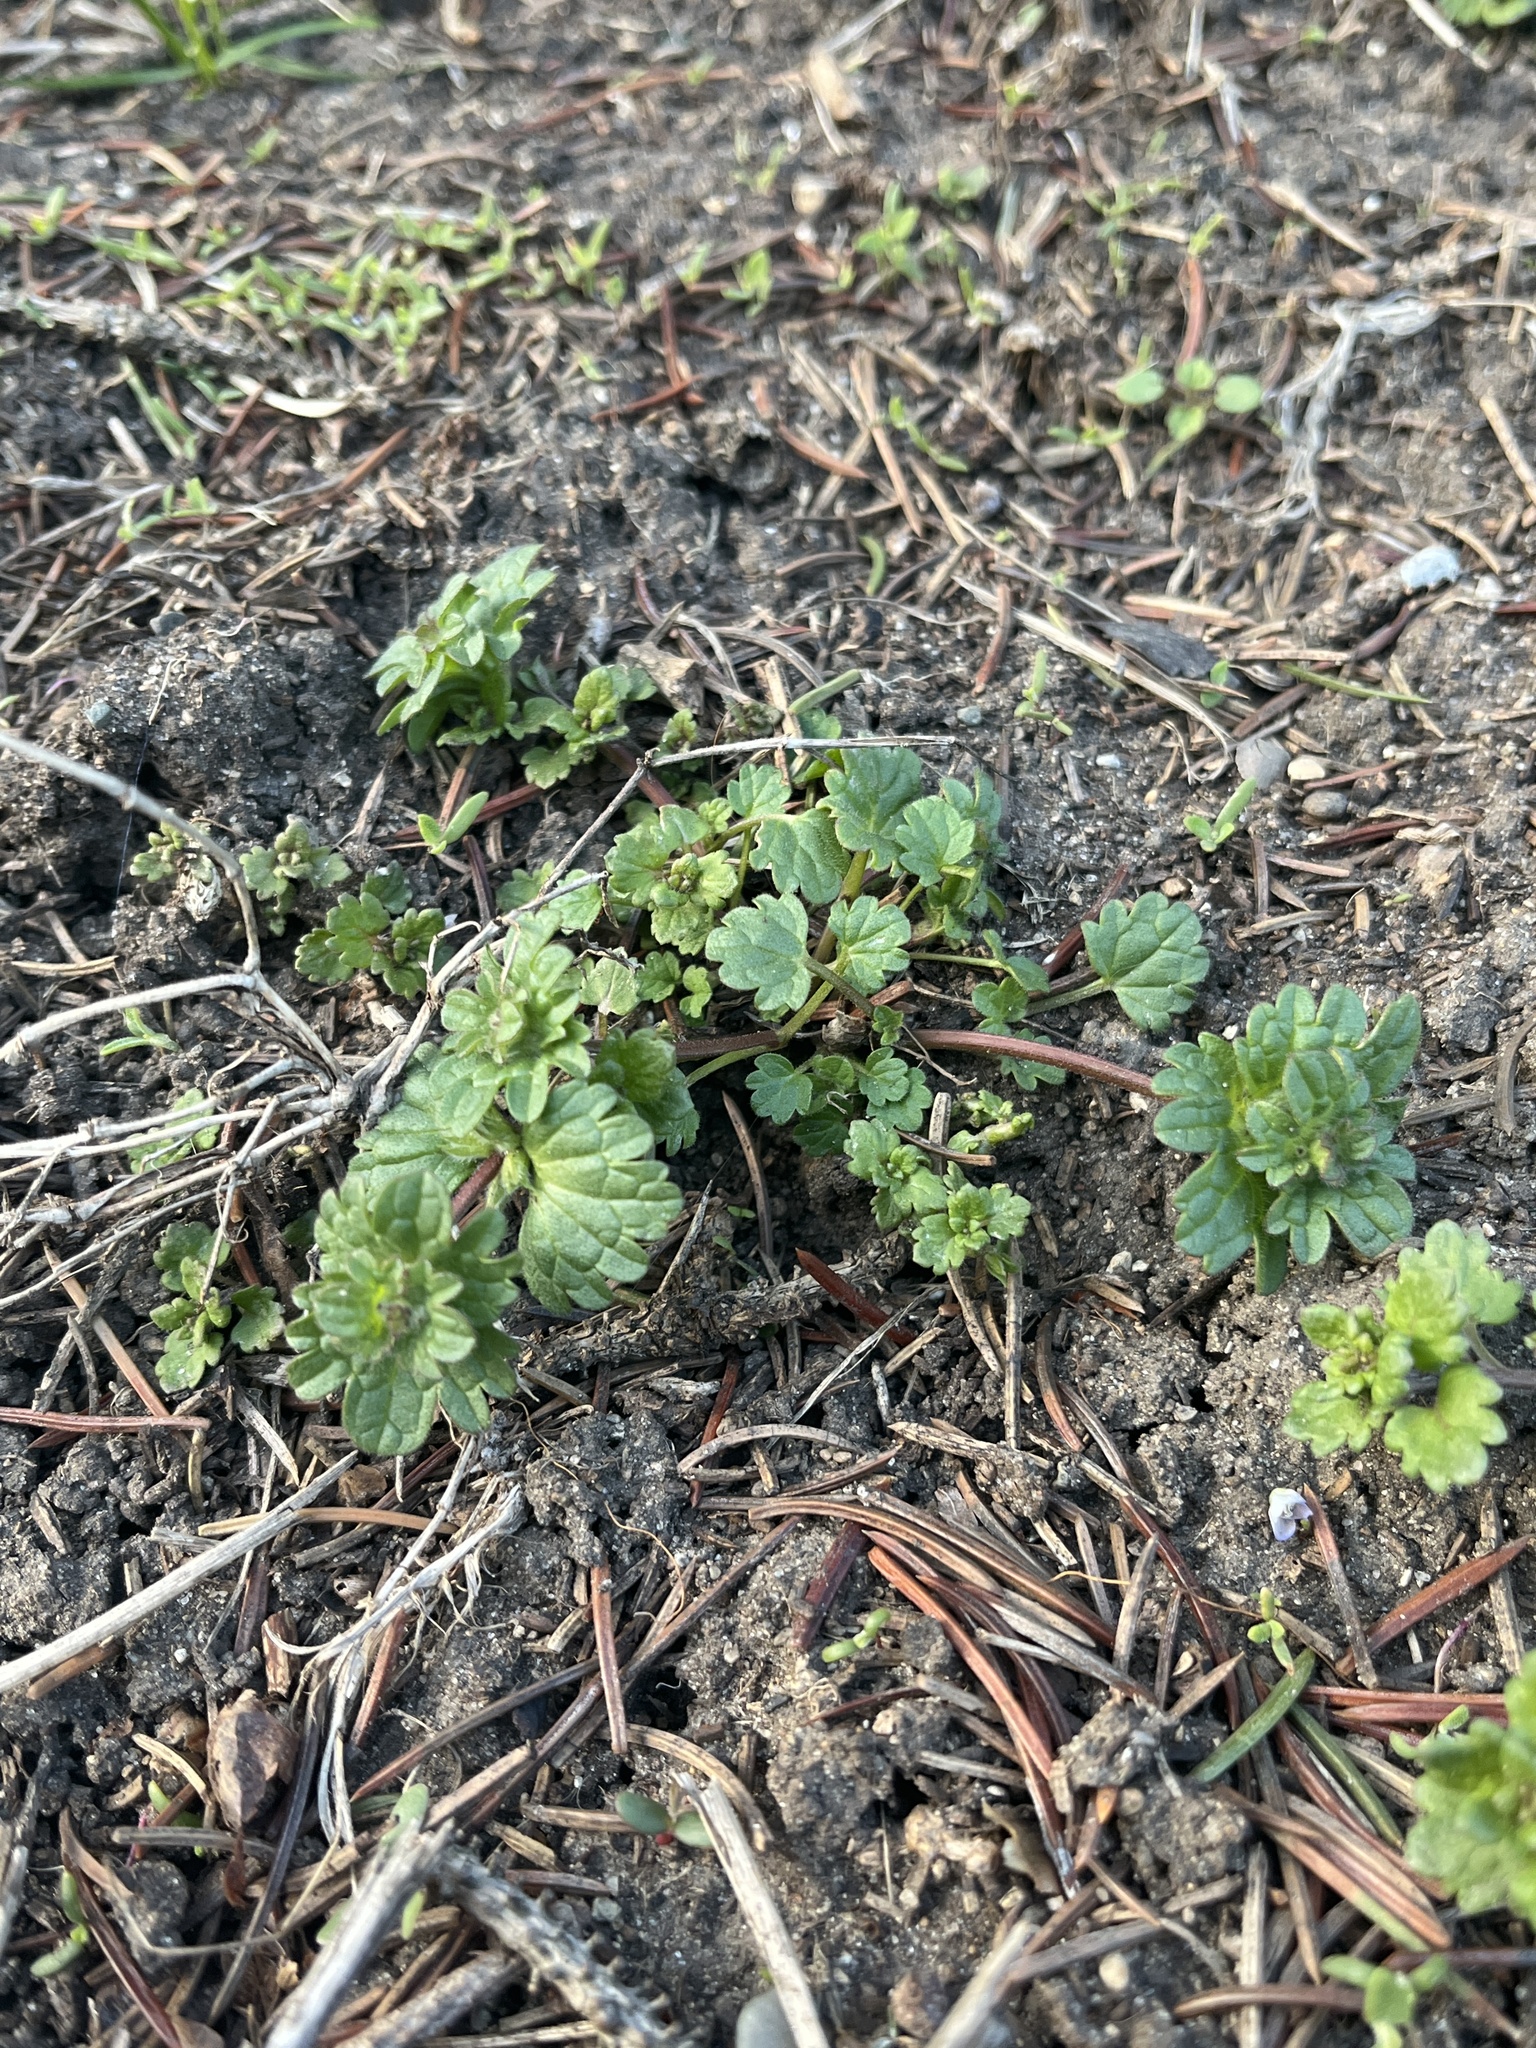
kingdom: Plantae
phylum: Tracheophyta
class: Magnoliopsida
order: Lamiales
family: Lamiaceae
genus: Lamium
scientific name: Lamium amplexicaule
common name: Henbit dead-nettle
